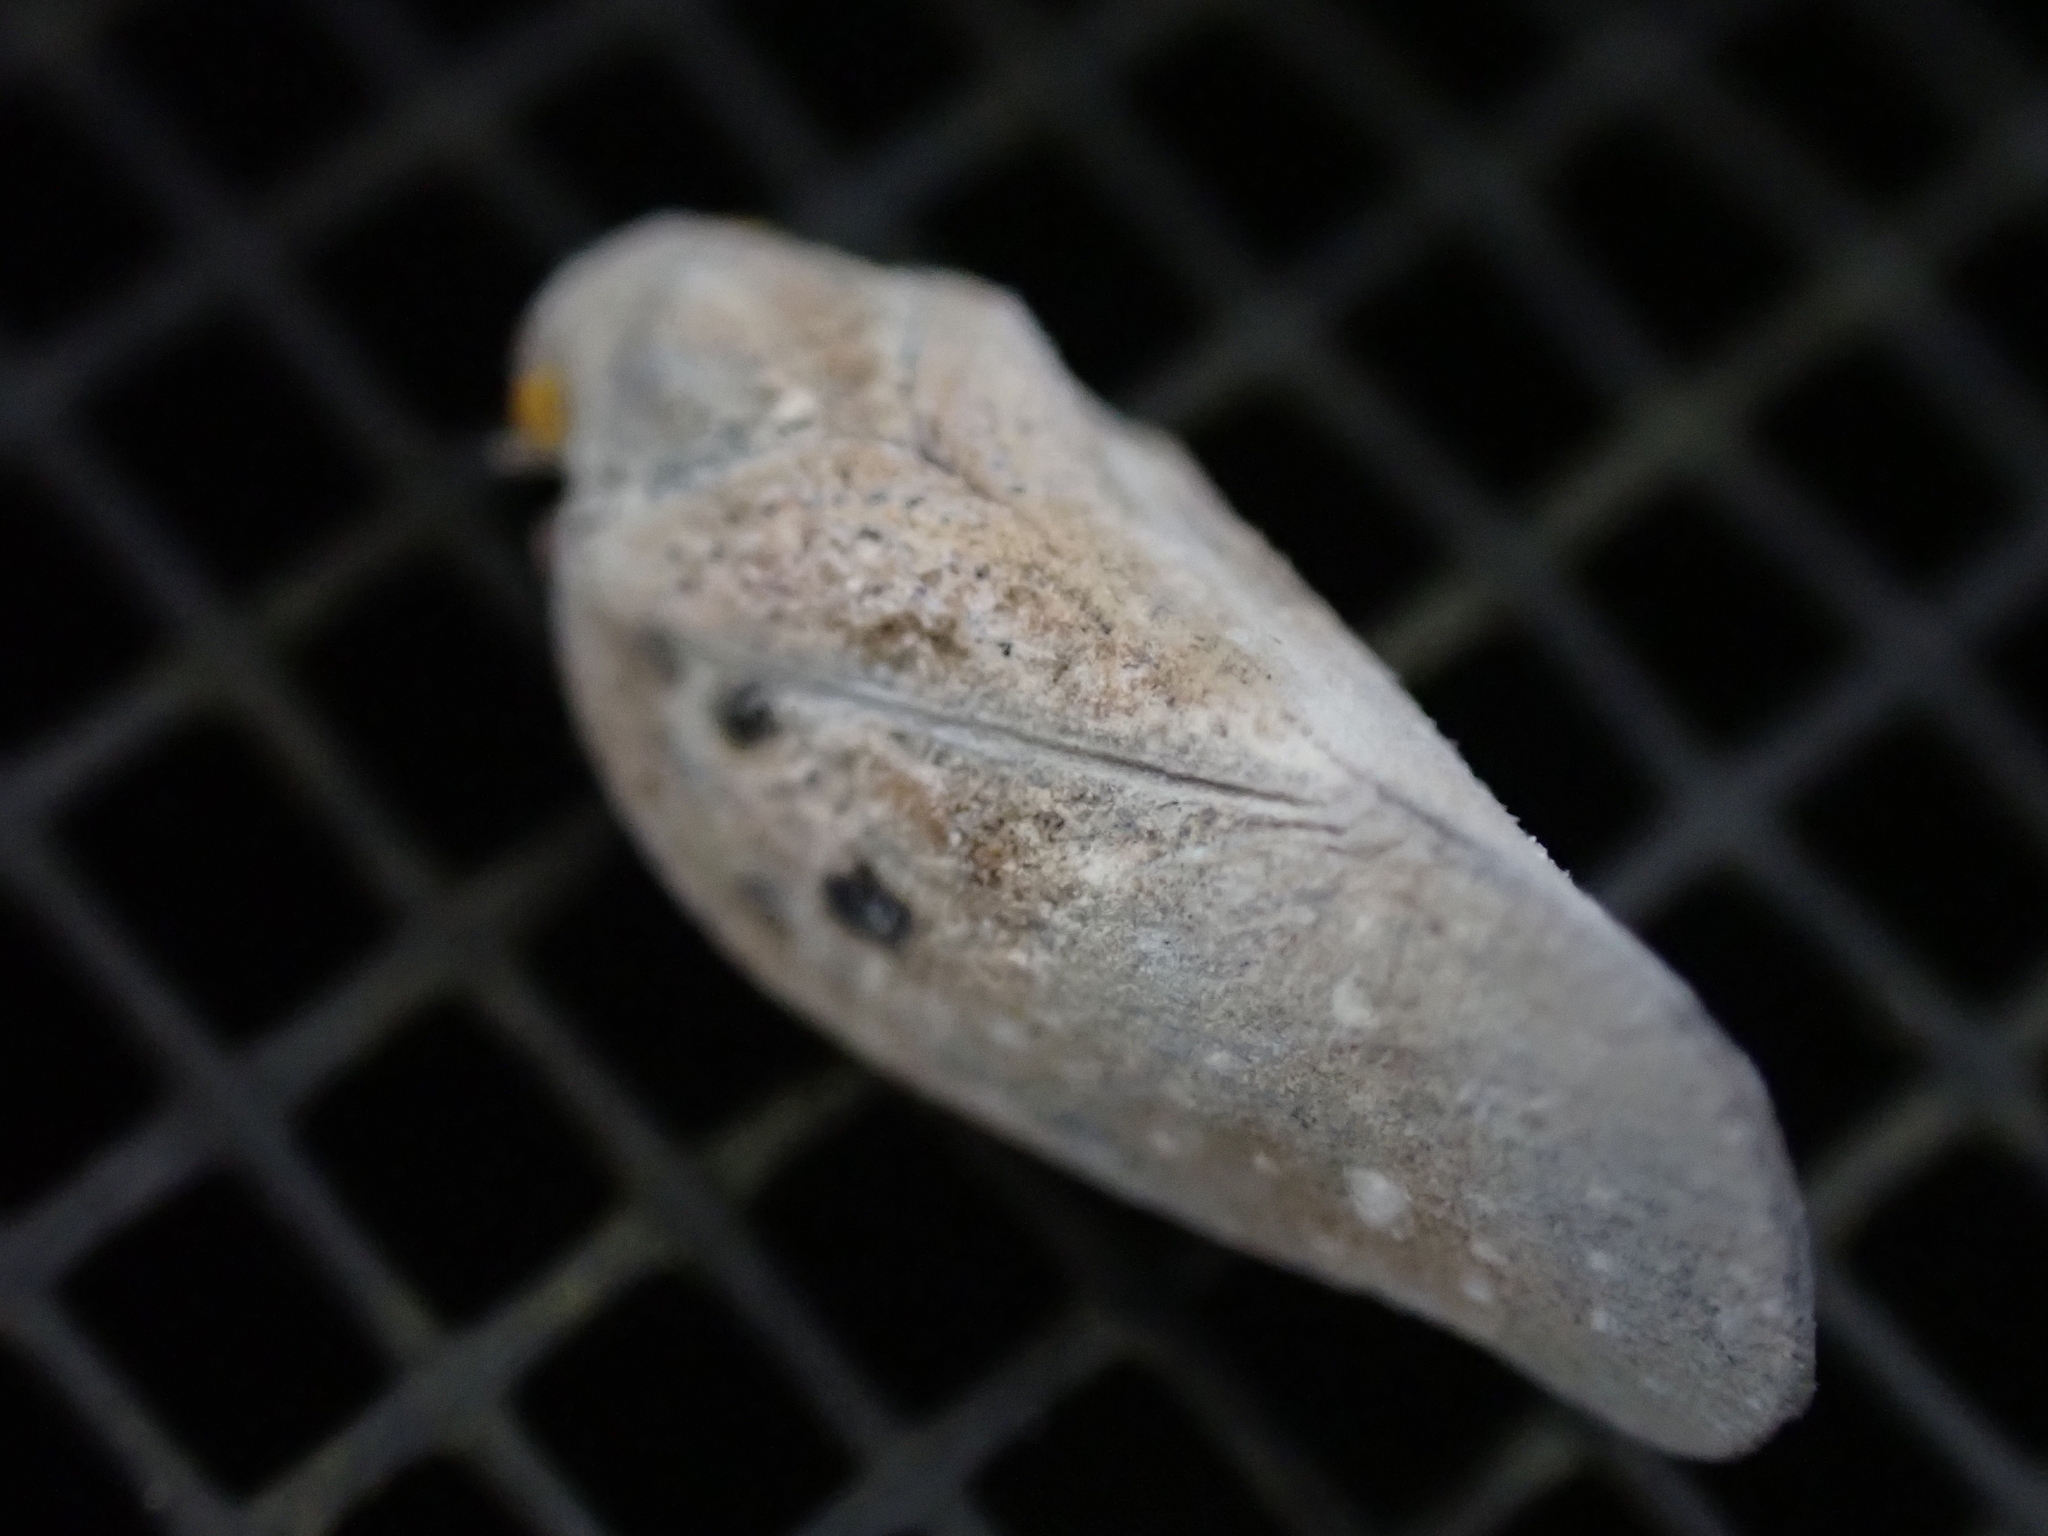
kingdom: Animalia
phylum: Arthropoda
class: Insecta
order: Hemiptera
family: Flatidae
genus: Metcalfa
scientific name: Metcalfa pruinosa
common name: Citrus flatid planthopper
